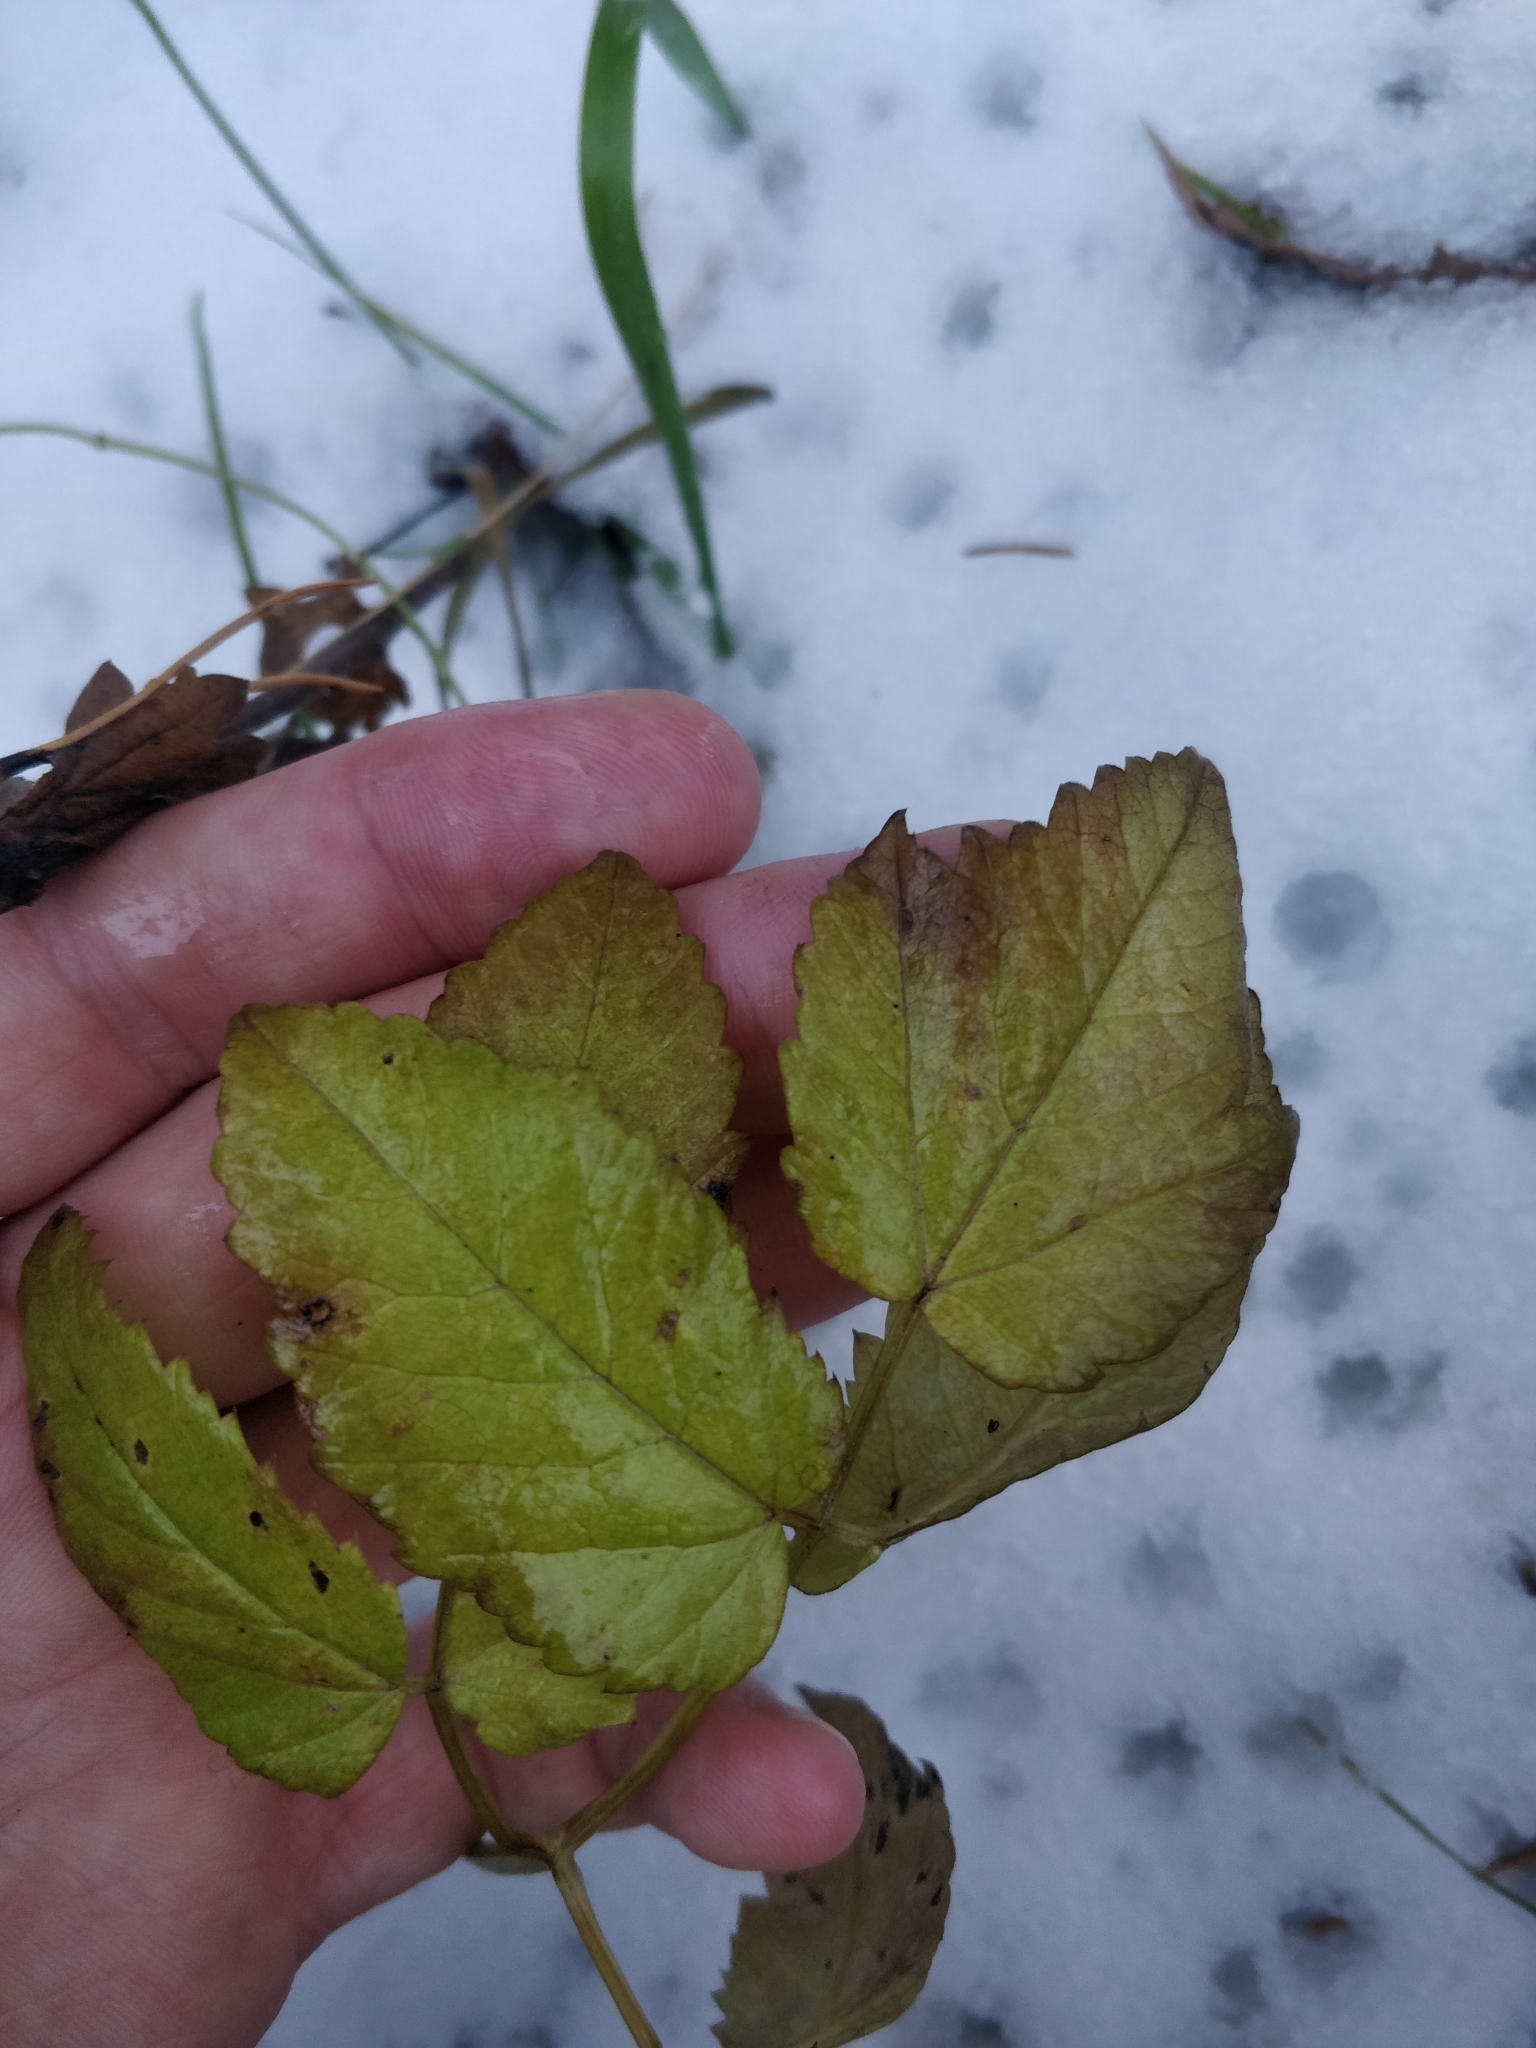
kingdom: Plantae
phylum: Tracheophyta
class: Magnoliopsida
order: Apiales
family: Apiaceae
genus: Aegopodium
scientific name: Aegopodium podagraria
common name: Ground-elder
